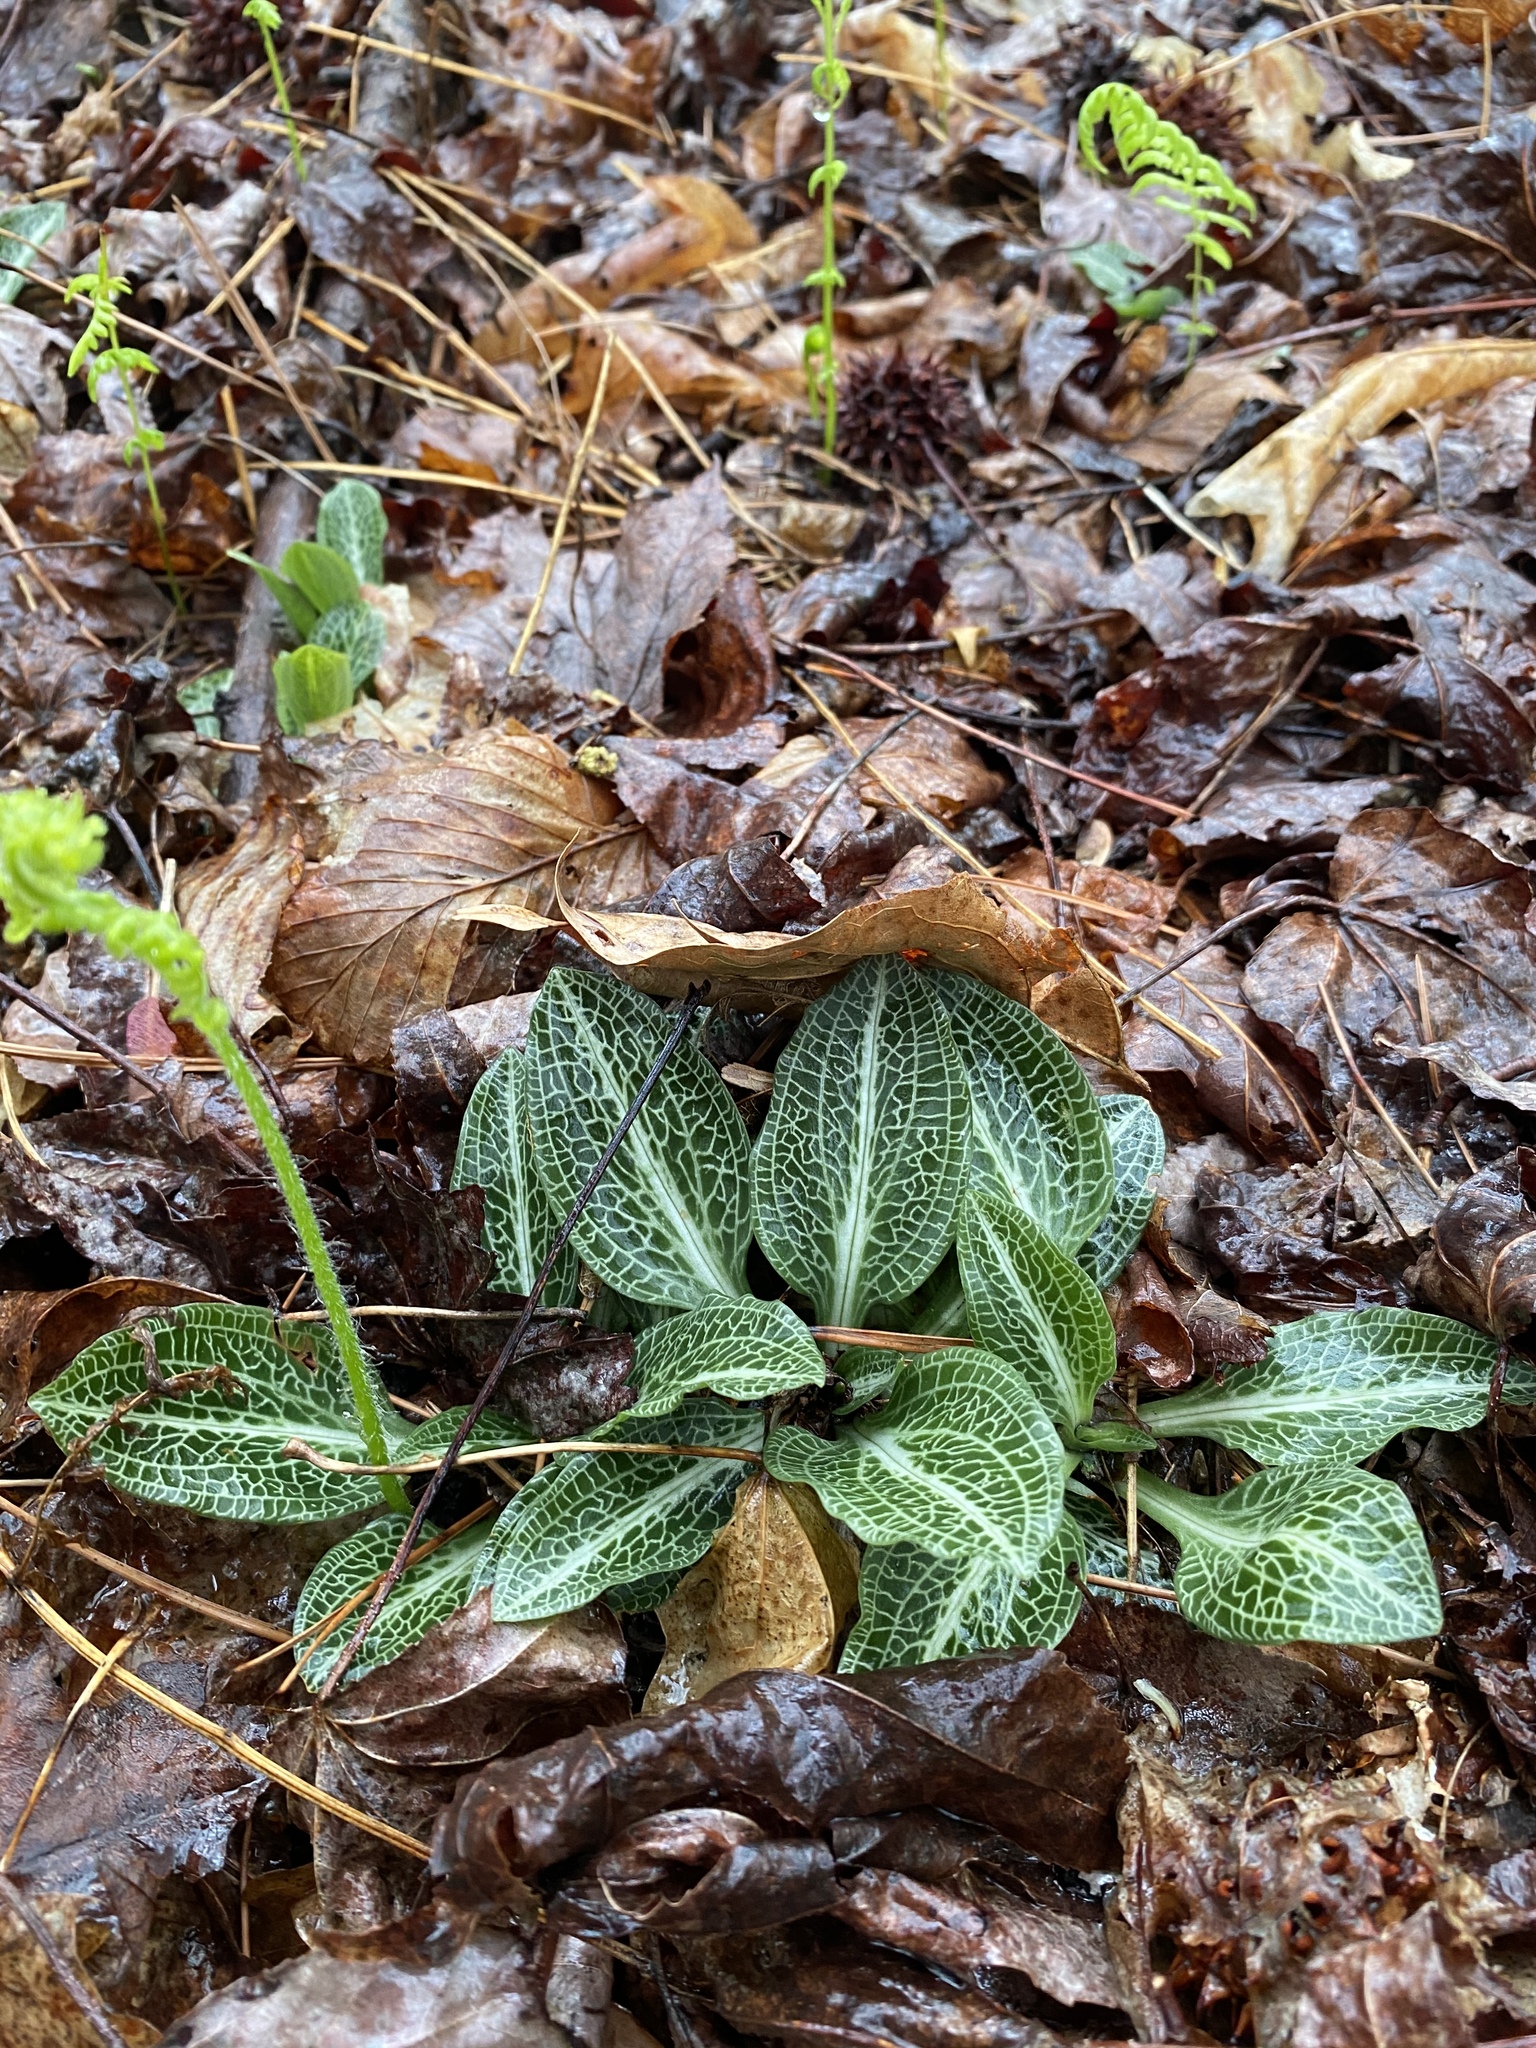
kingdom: Plantae
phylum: Tracheophyta
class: Liliopsida
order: Asparagales
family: Orchidaceae
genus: Goodyera
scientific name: Goodyera pubescens
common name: Downy rattlesnake-plantain
